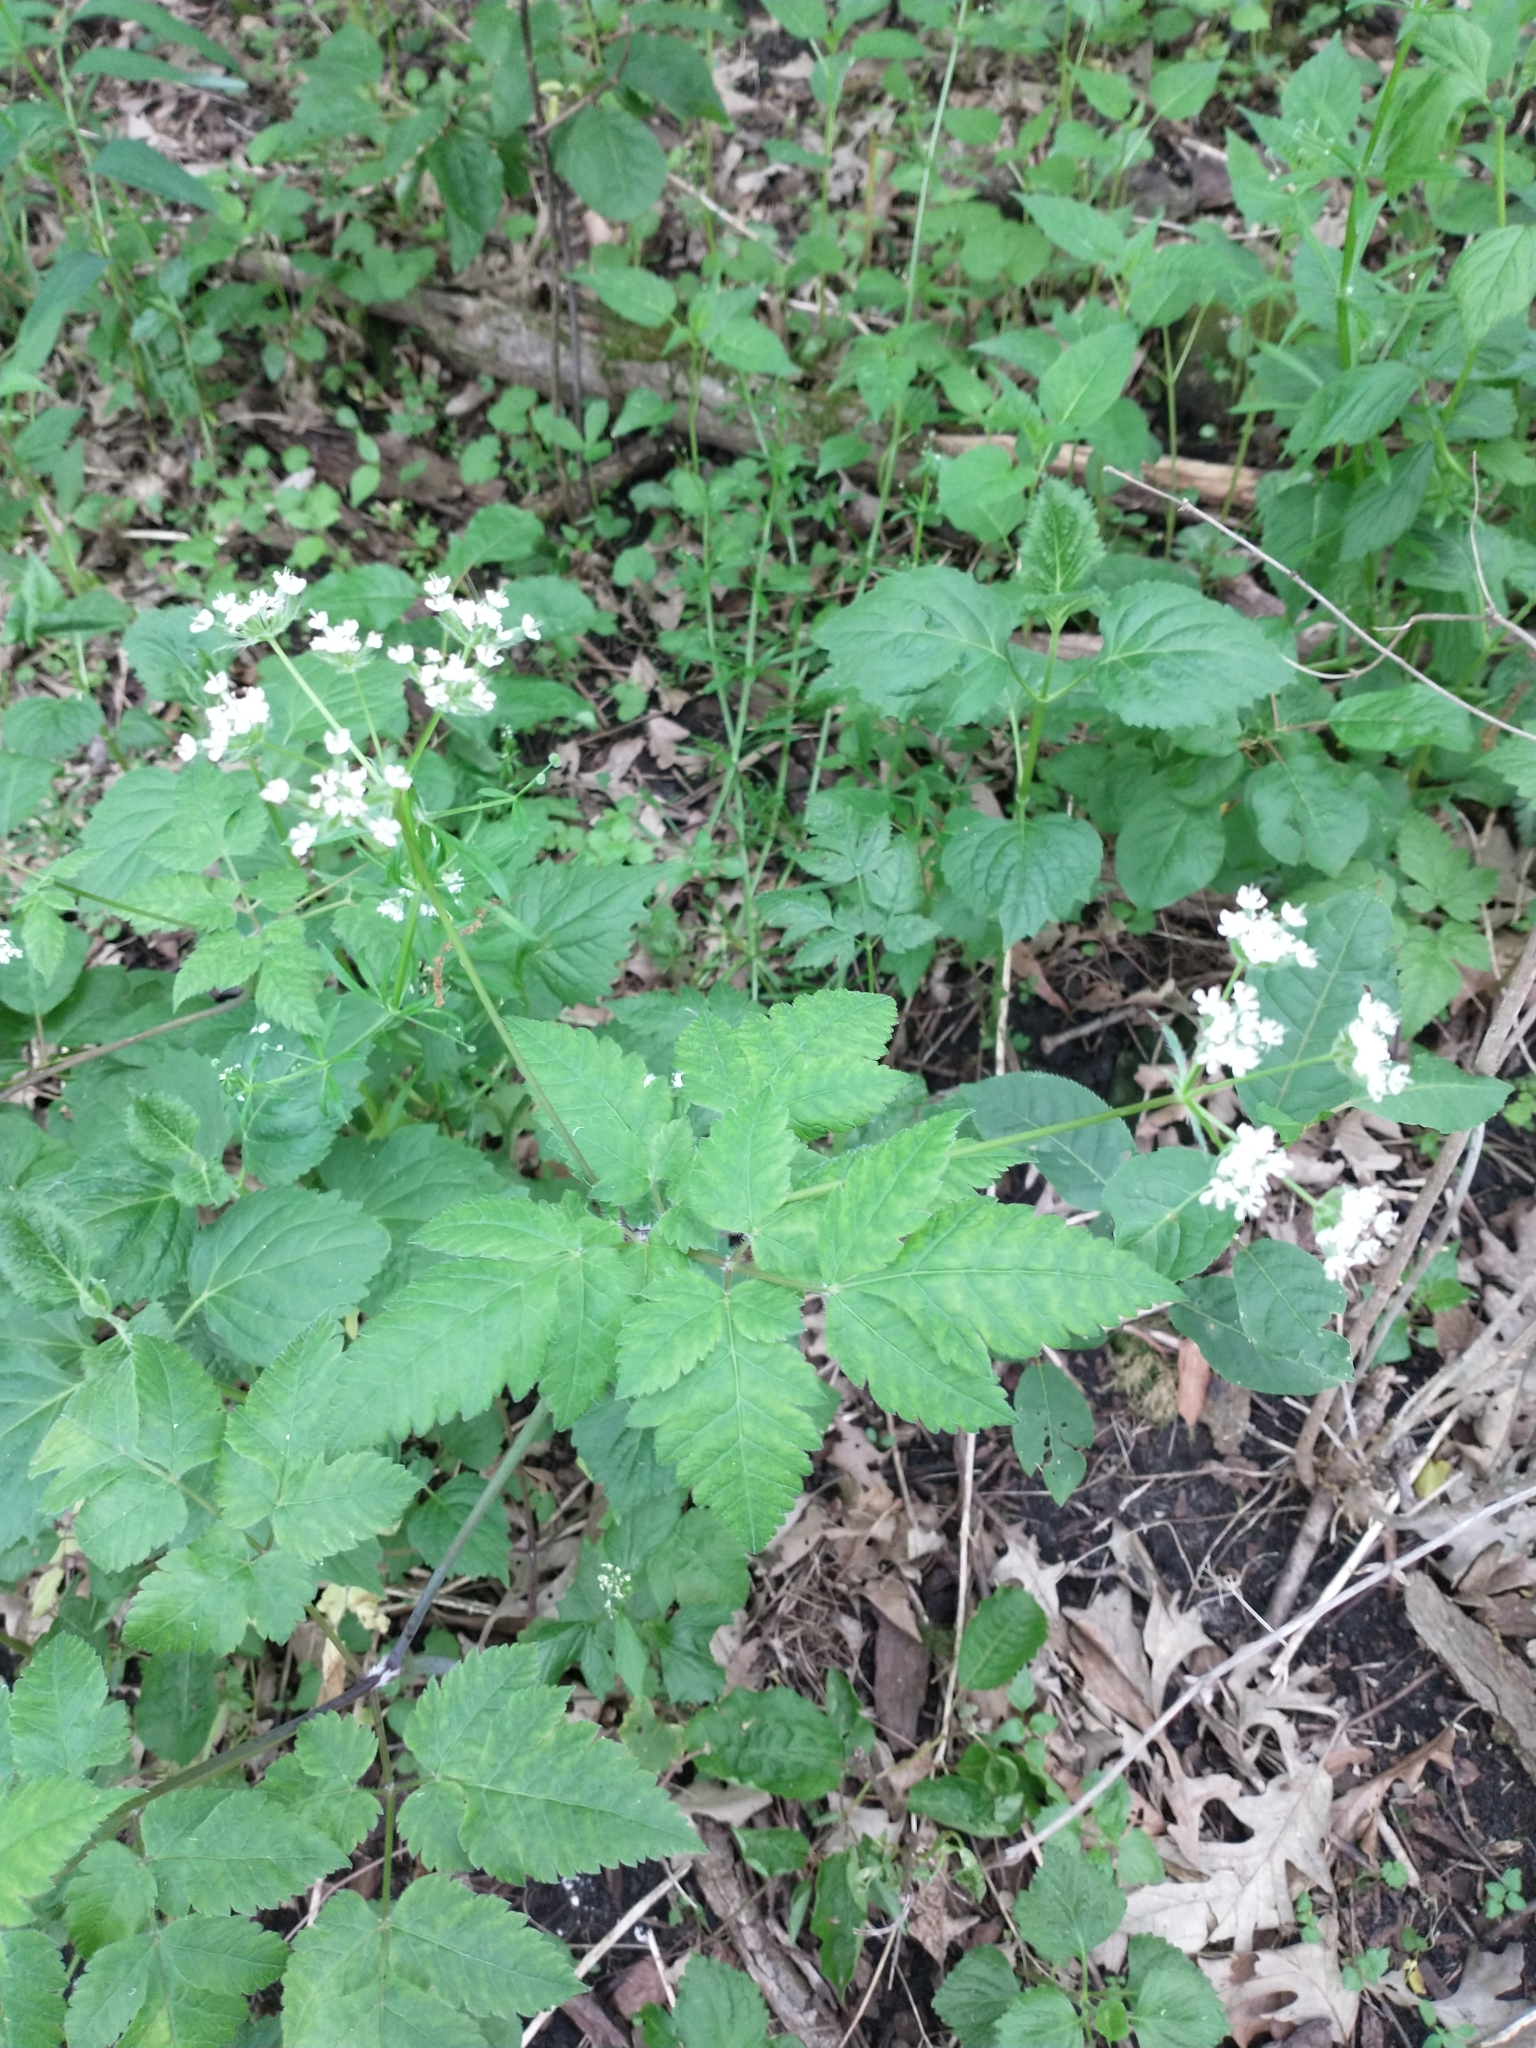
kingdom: Plantae
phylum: Tracheophyta
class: Magnoliopsida
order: Apiales
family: Apiaceae
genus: Osmorhiza
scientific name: Osmorhiza longistylis
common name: Smooth sweet cicely
